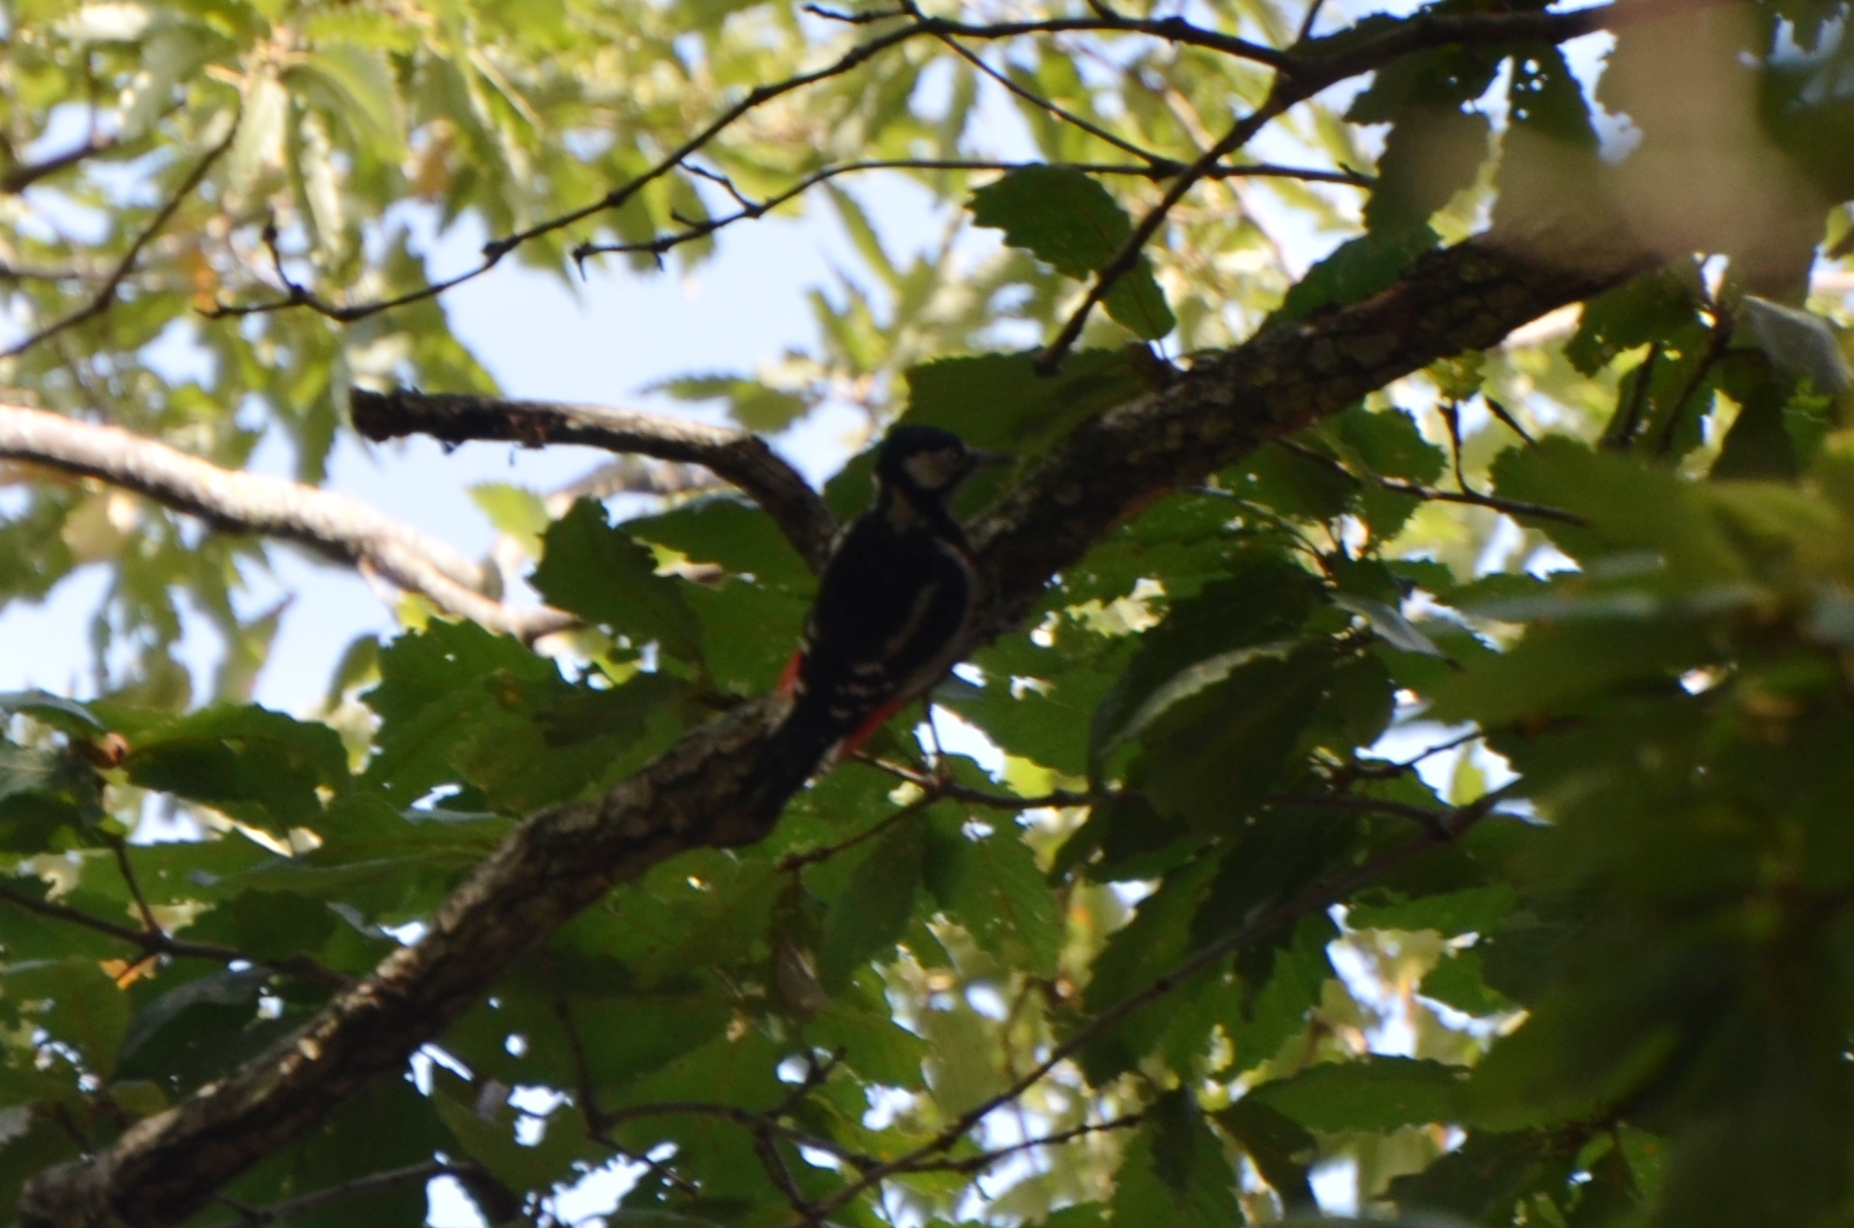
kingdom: Animalia
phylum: Chordata
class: Aves
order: Piciformes
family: Picidae
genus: Dendrocopos
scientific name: Dendrocopos major
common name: Great spotted woodpecker
